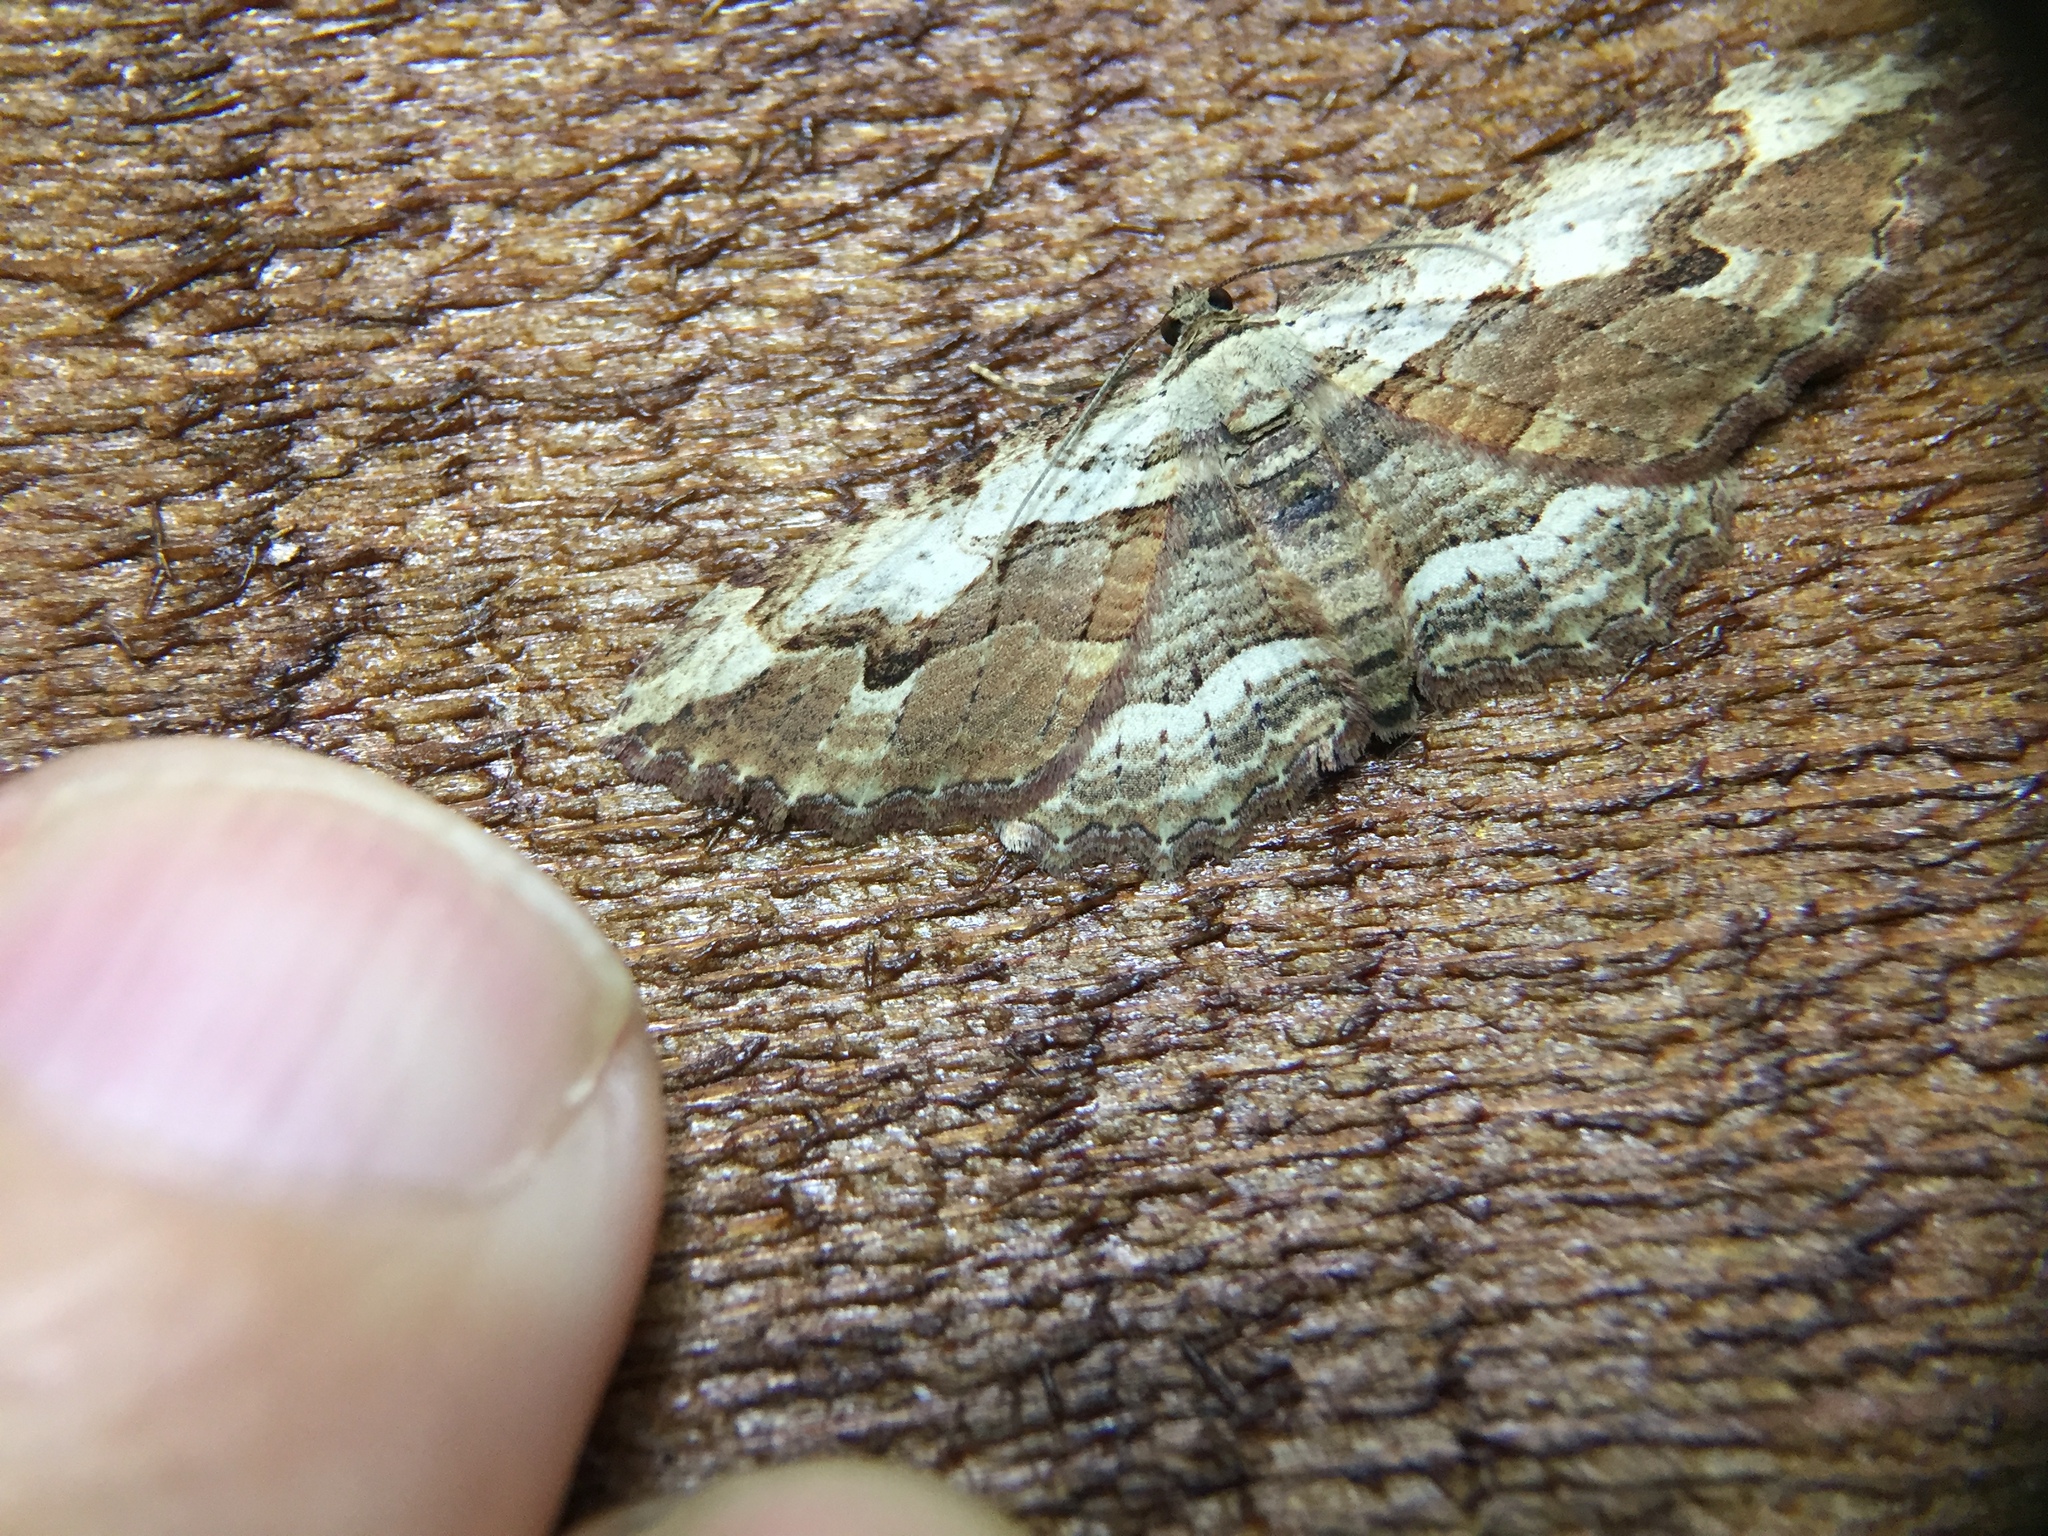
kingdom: Animalia
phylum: Arthropoda
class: Insecta
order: Lepidoptera
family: Geometridae
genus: Austrocidaria
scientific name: Austrocidaria bipartita
